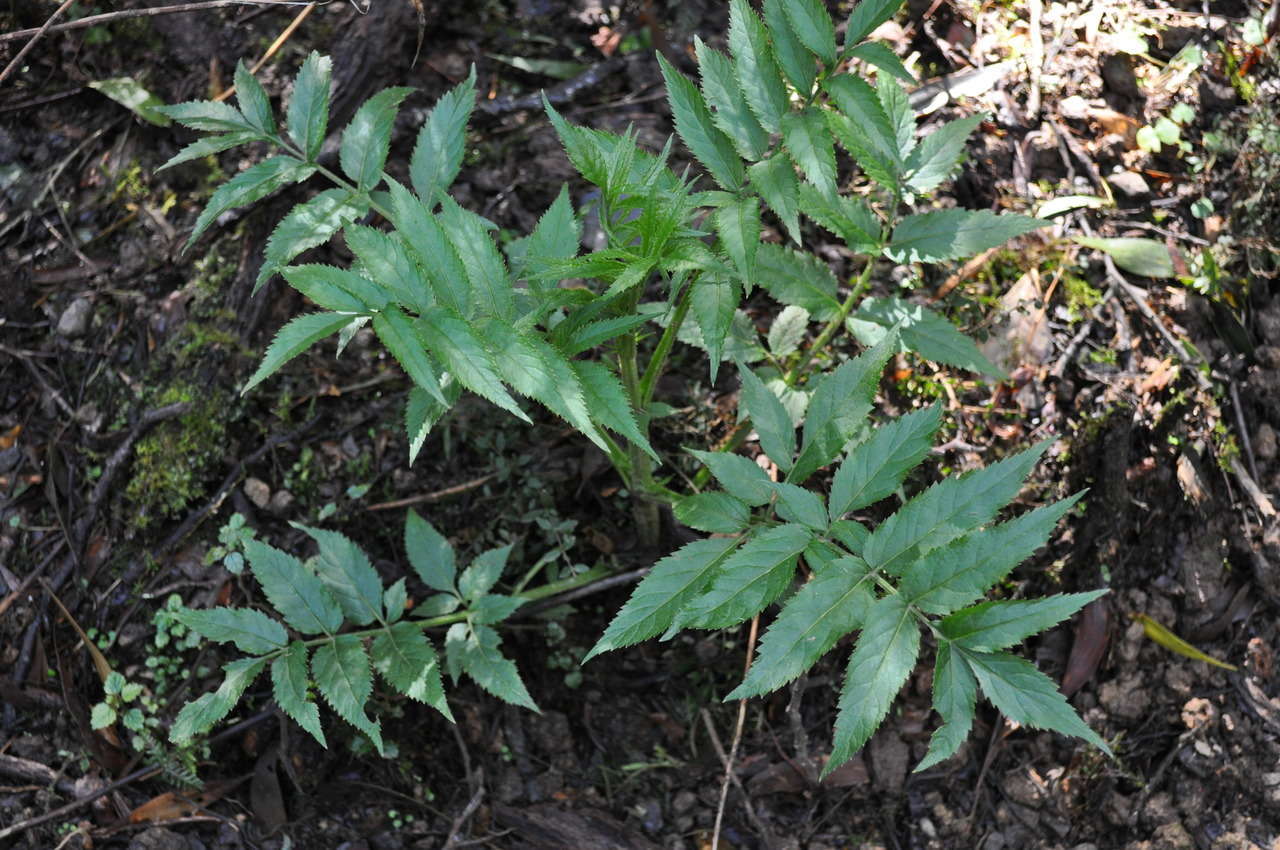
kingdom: Plantae
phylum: Tracheophyta
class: Magnoliopsida
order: Dipsacales
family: Viburnaceae
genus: Sambucus
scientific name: Sambucus gaudichaudiana
